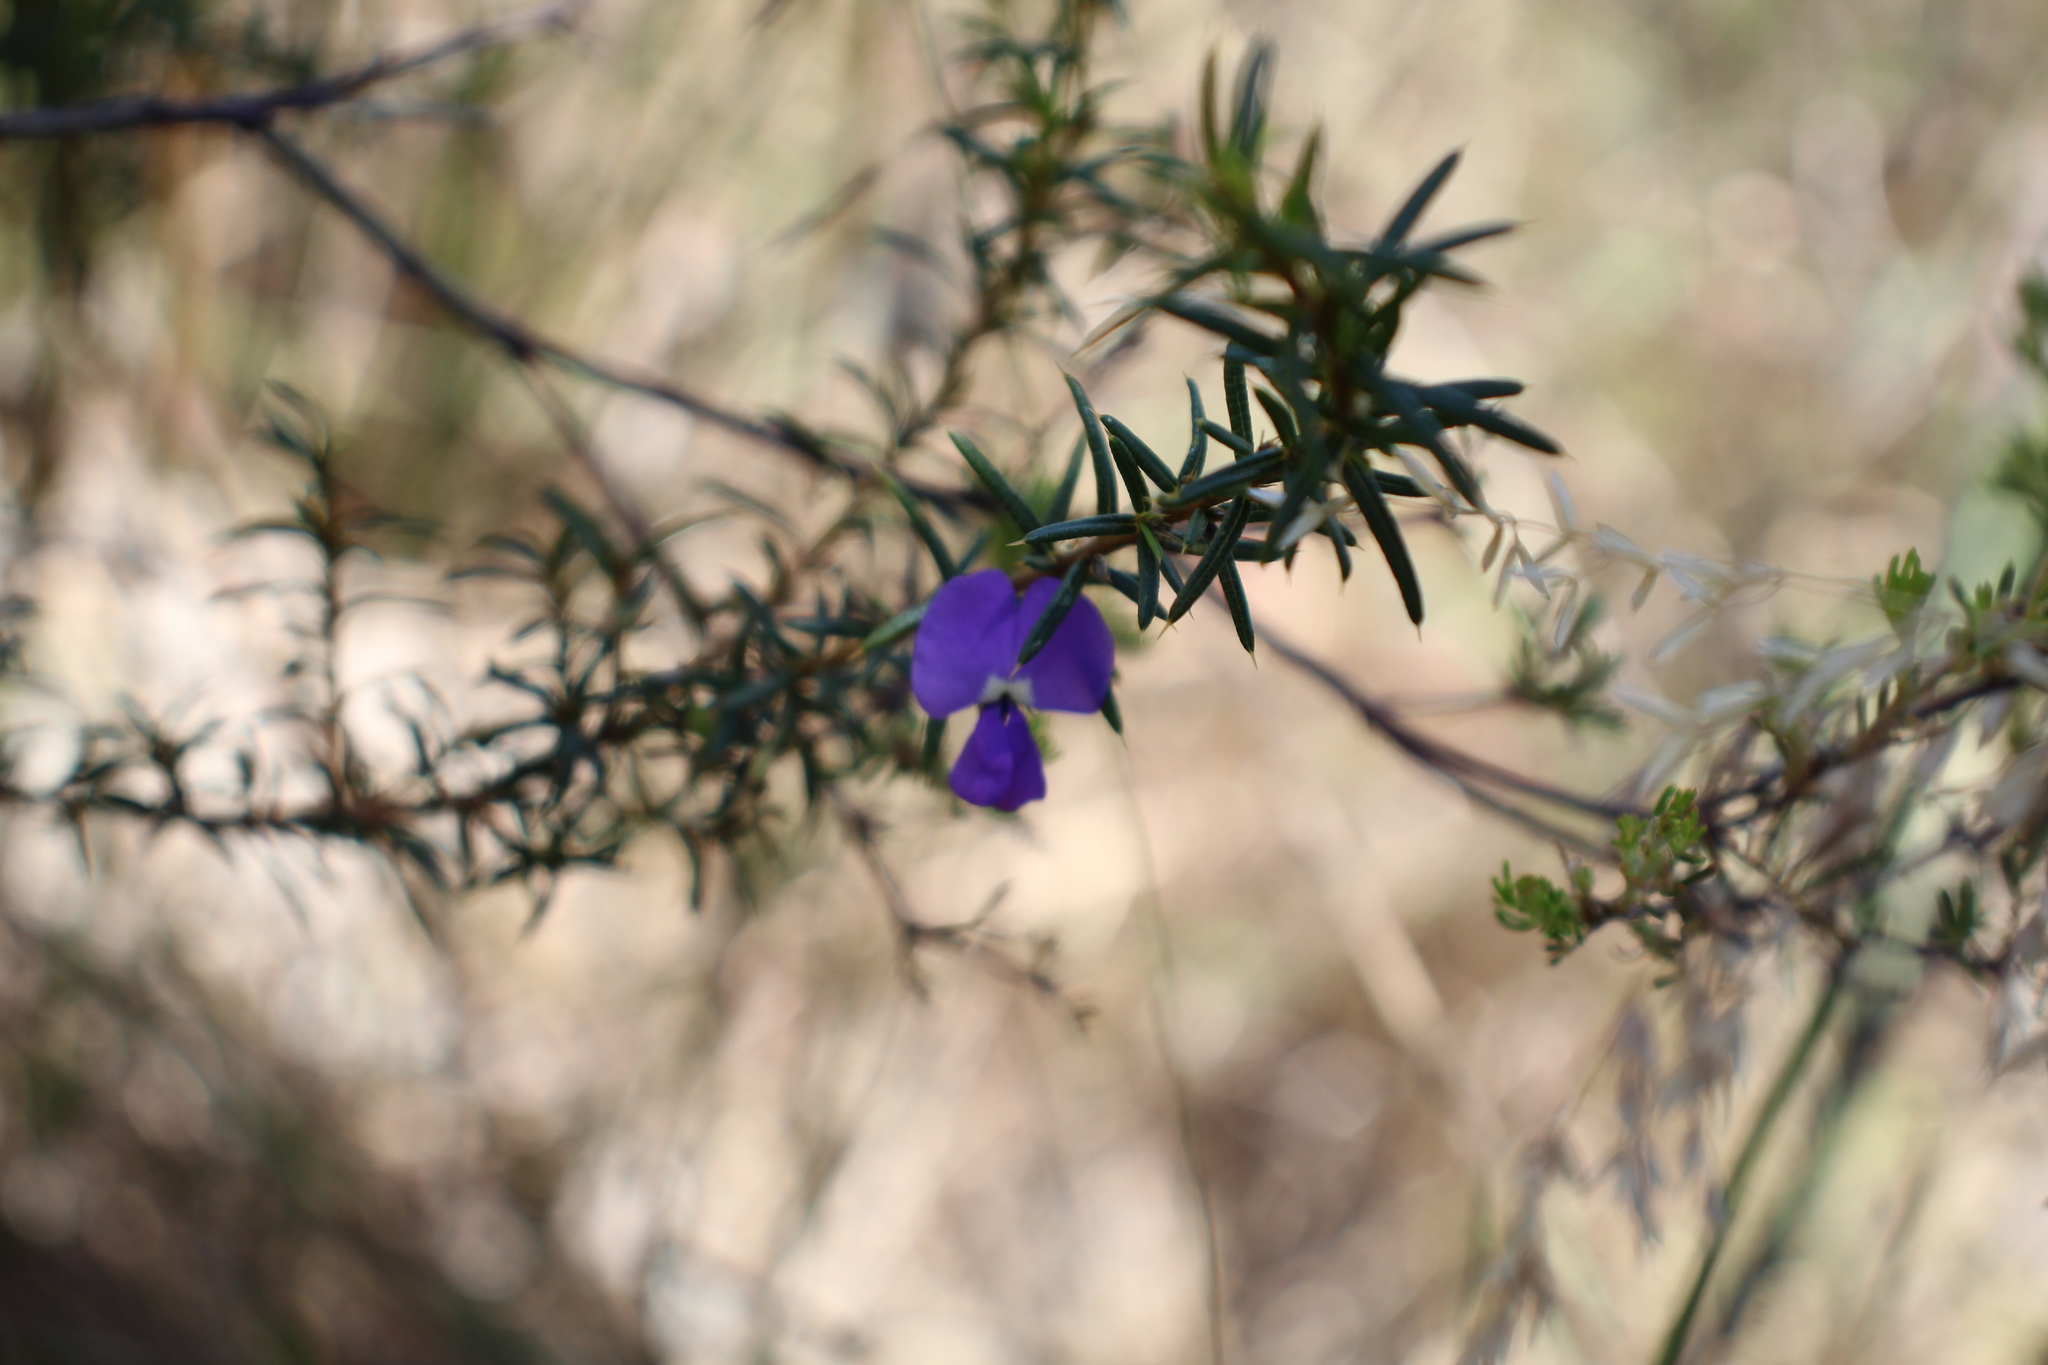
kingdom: Plantae
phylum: Tracheophyta
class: Magnoliopsida
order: Fabales
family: Fabaceae
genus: Hovea
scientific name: Hovea pungens
